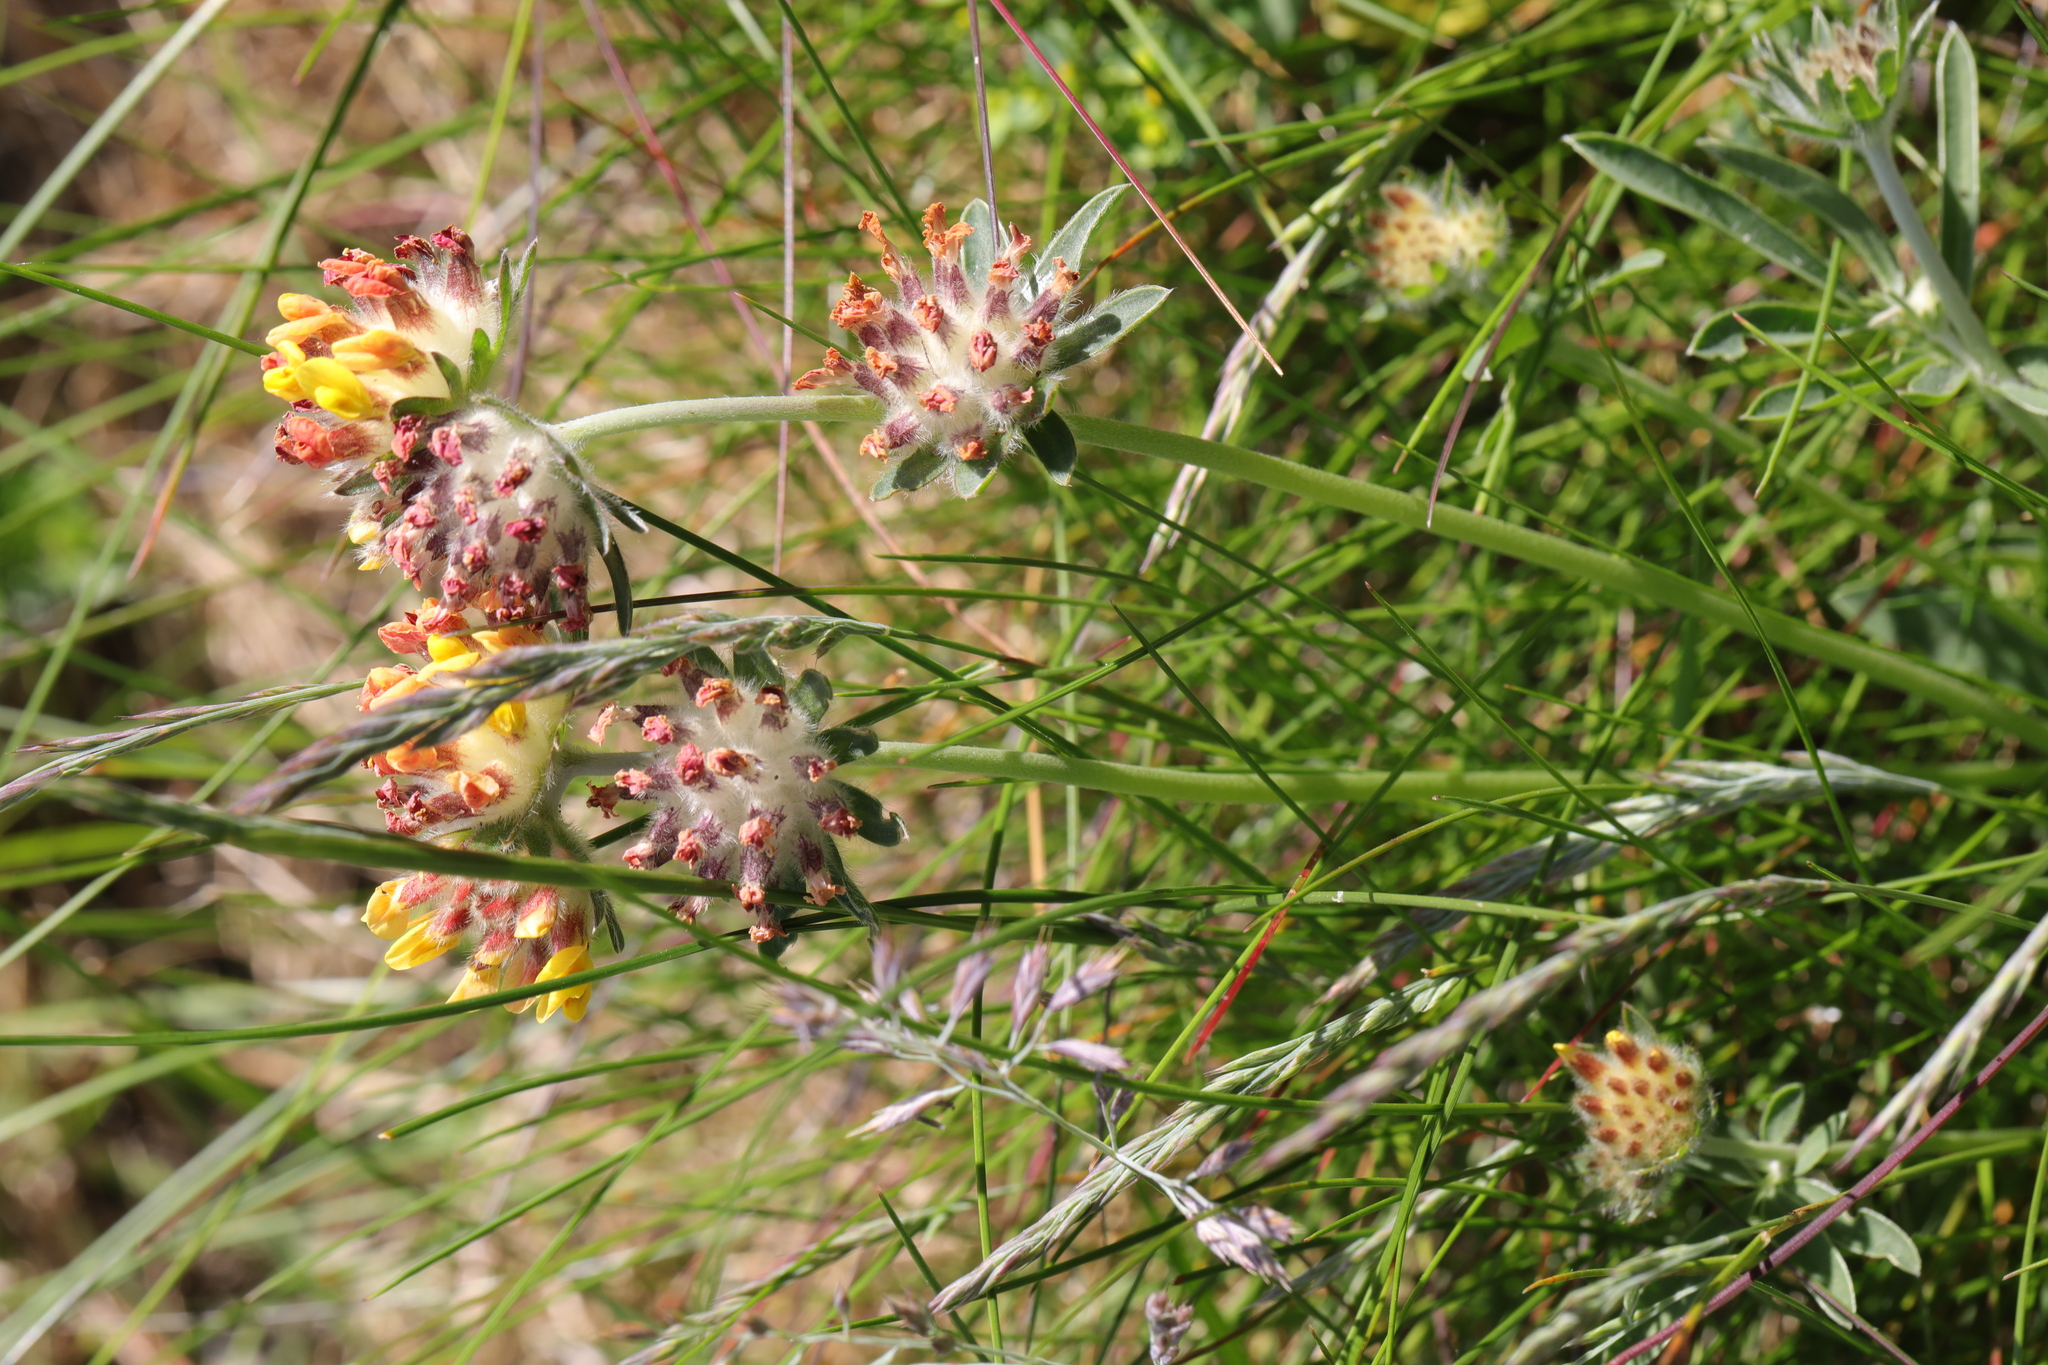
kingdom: Plantae
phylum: Tracheophyta
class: Magnoliopsida
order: Fabales
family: Fabaceae
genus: Anthyllis
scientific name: Anthyllis vulneraria
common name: Kidney vetch
